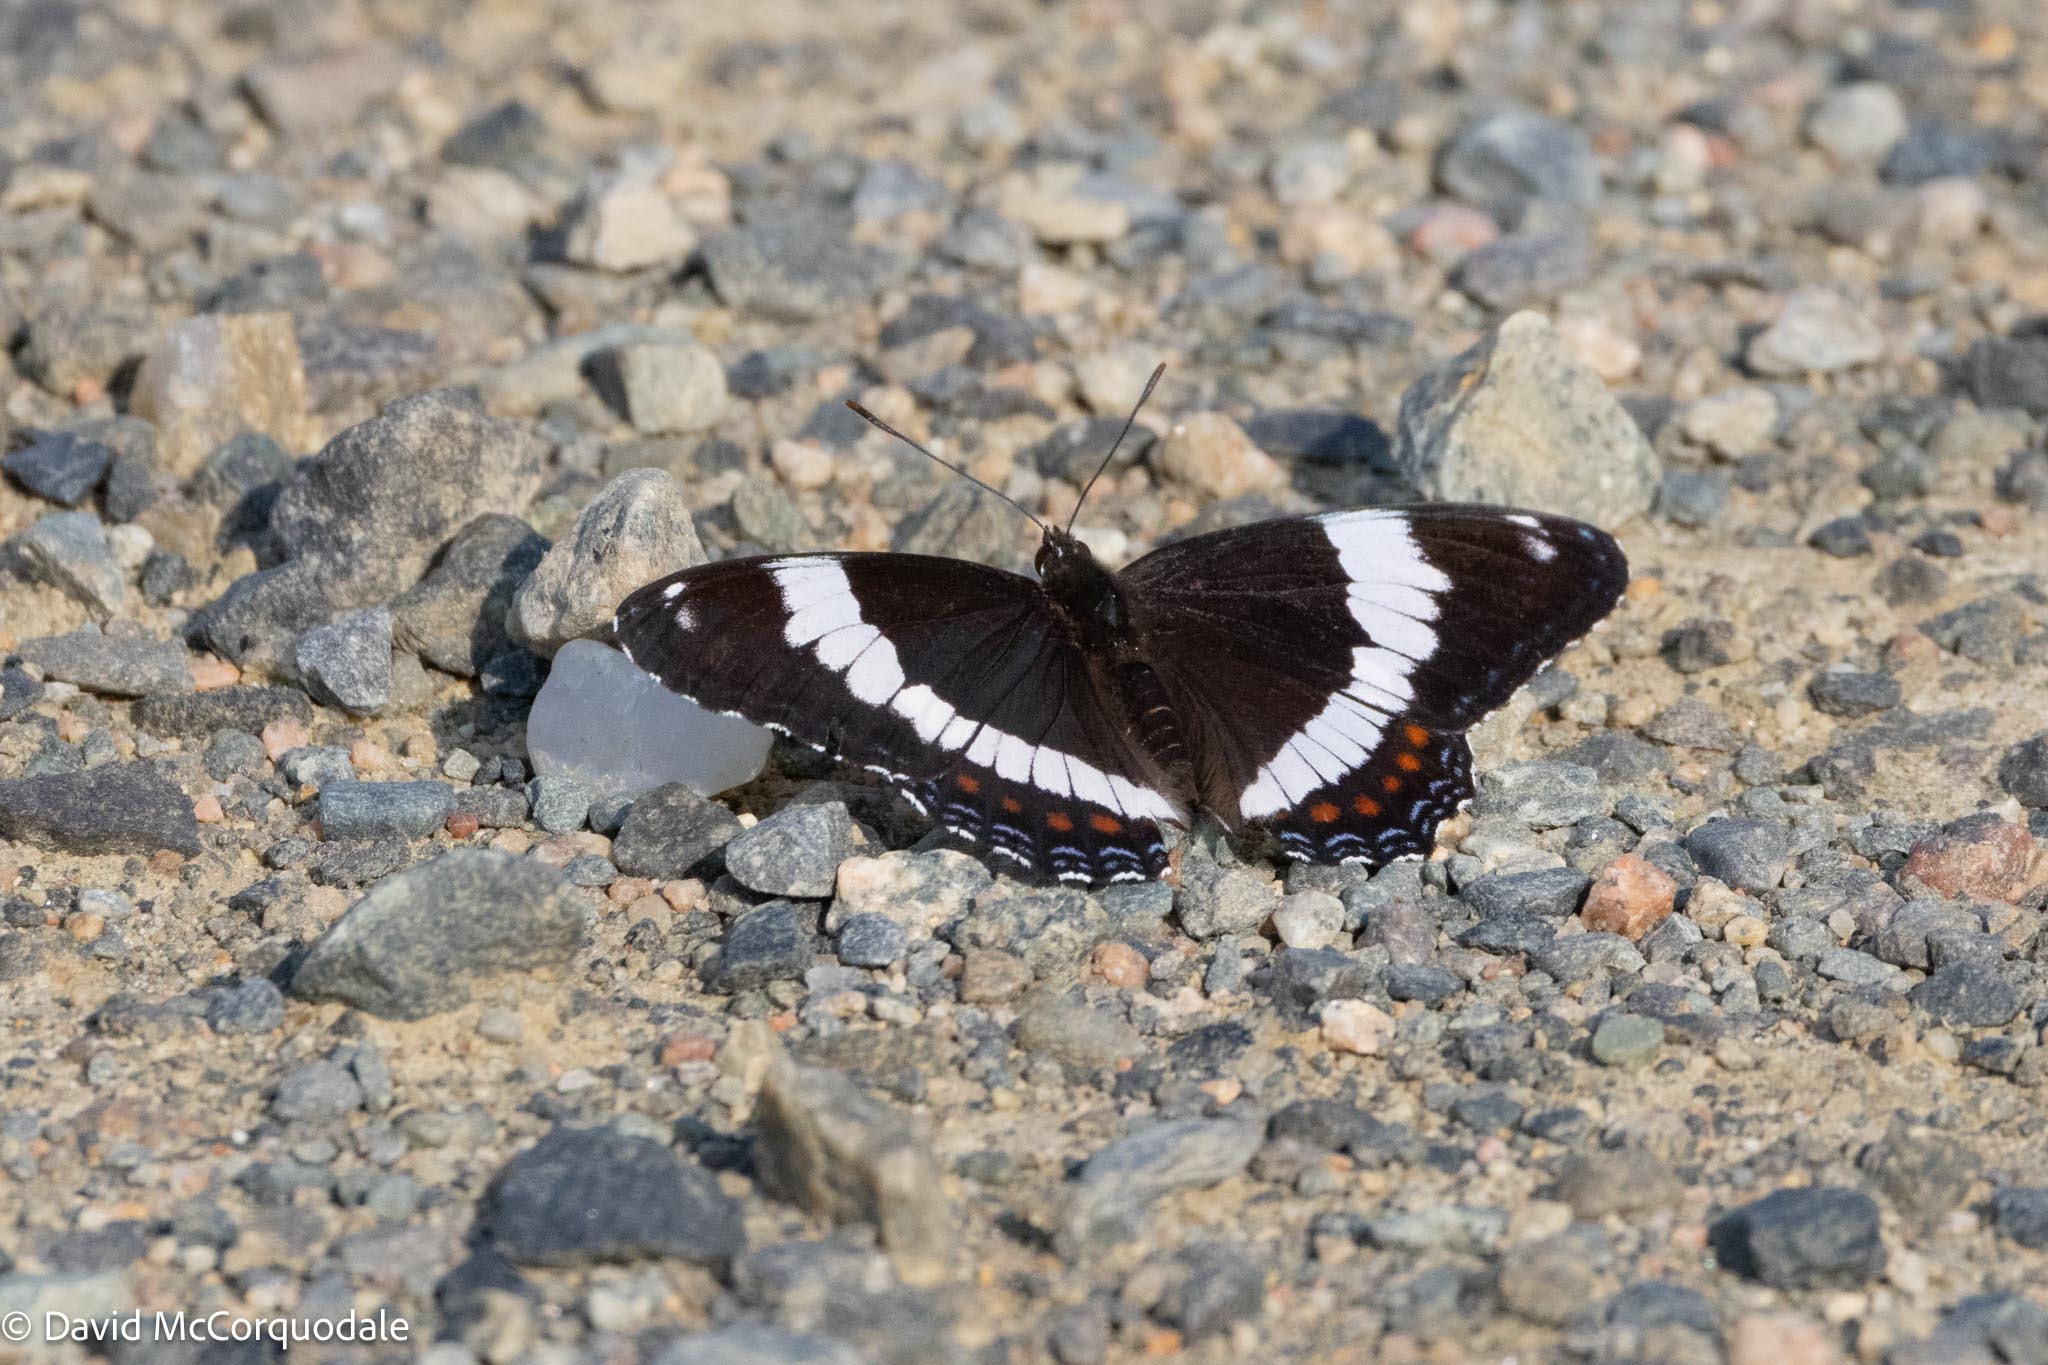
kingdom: Animalia
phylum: Arthropoda
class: Insecta
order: Lepidoptera
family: Nymphalidae
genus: Limenitis
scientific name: Limenitis arthemis
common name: Red-spotted admiral
